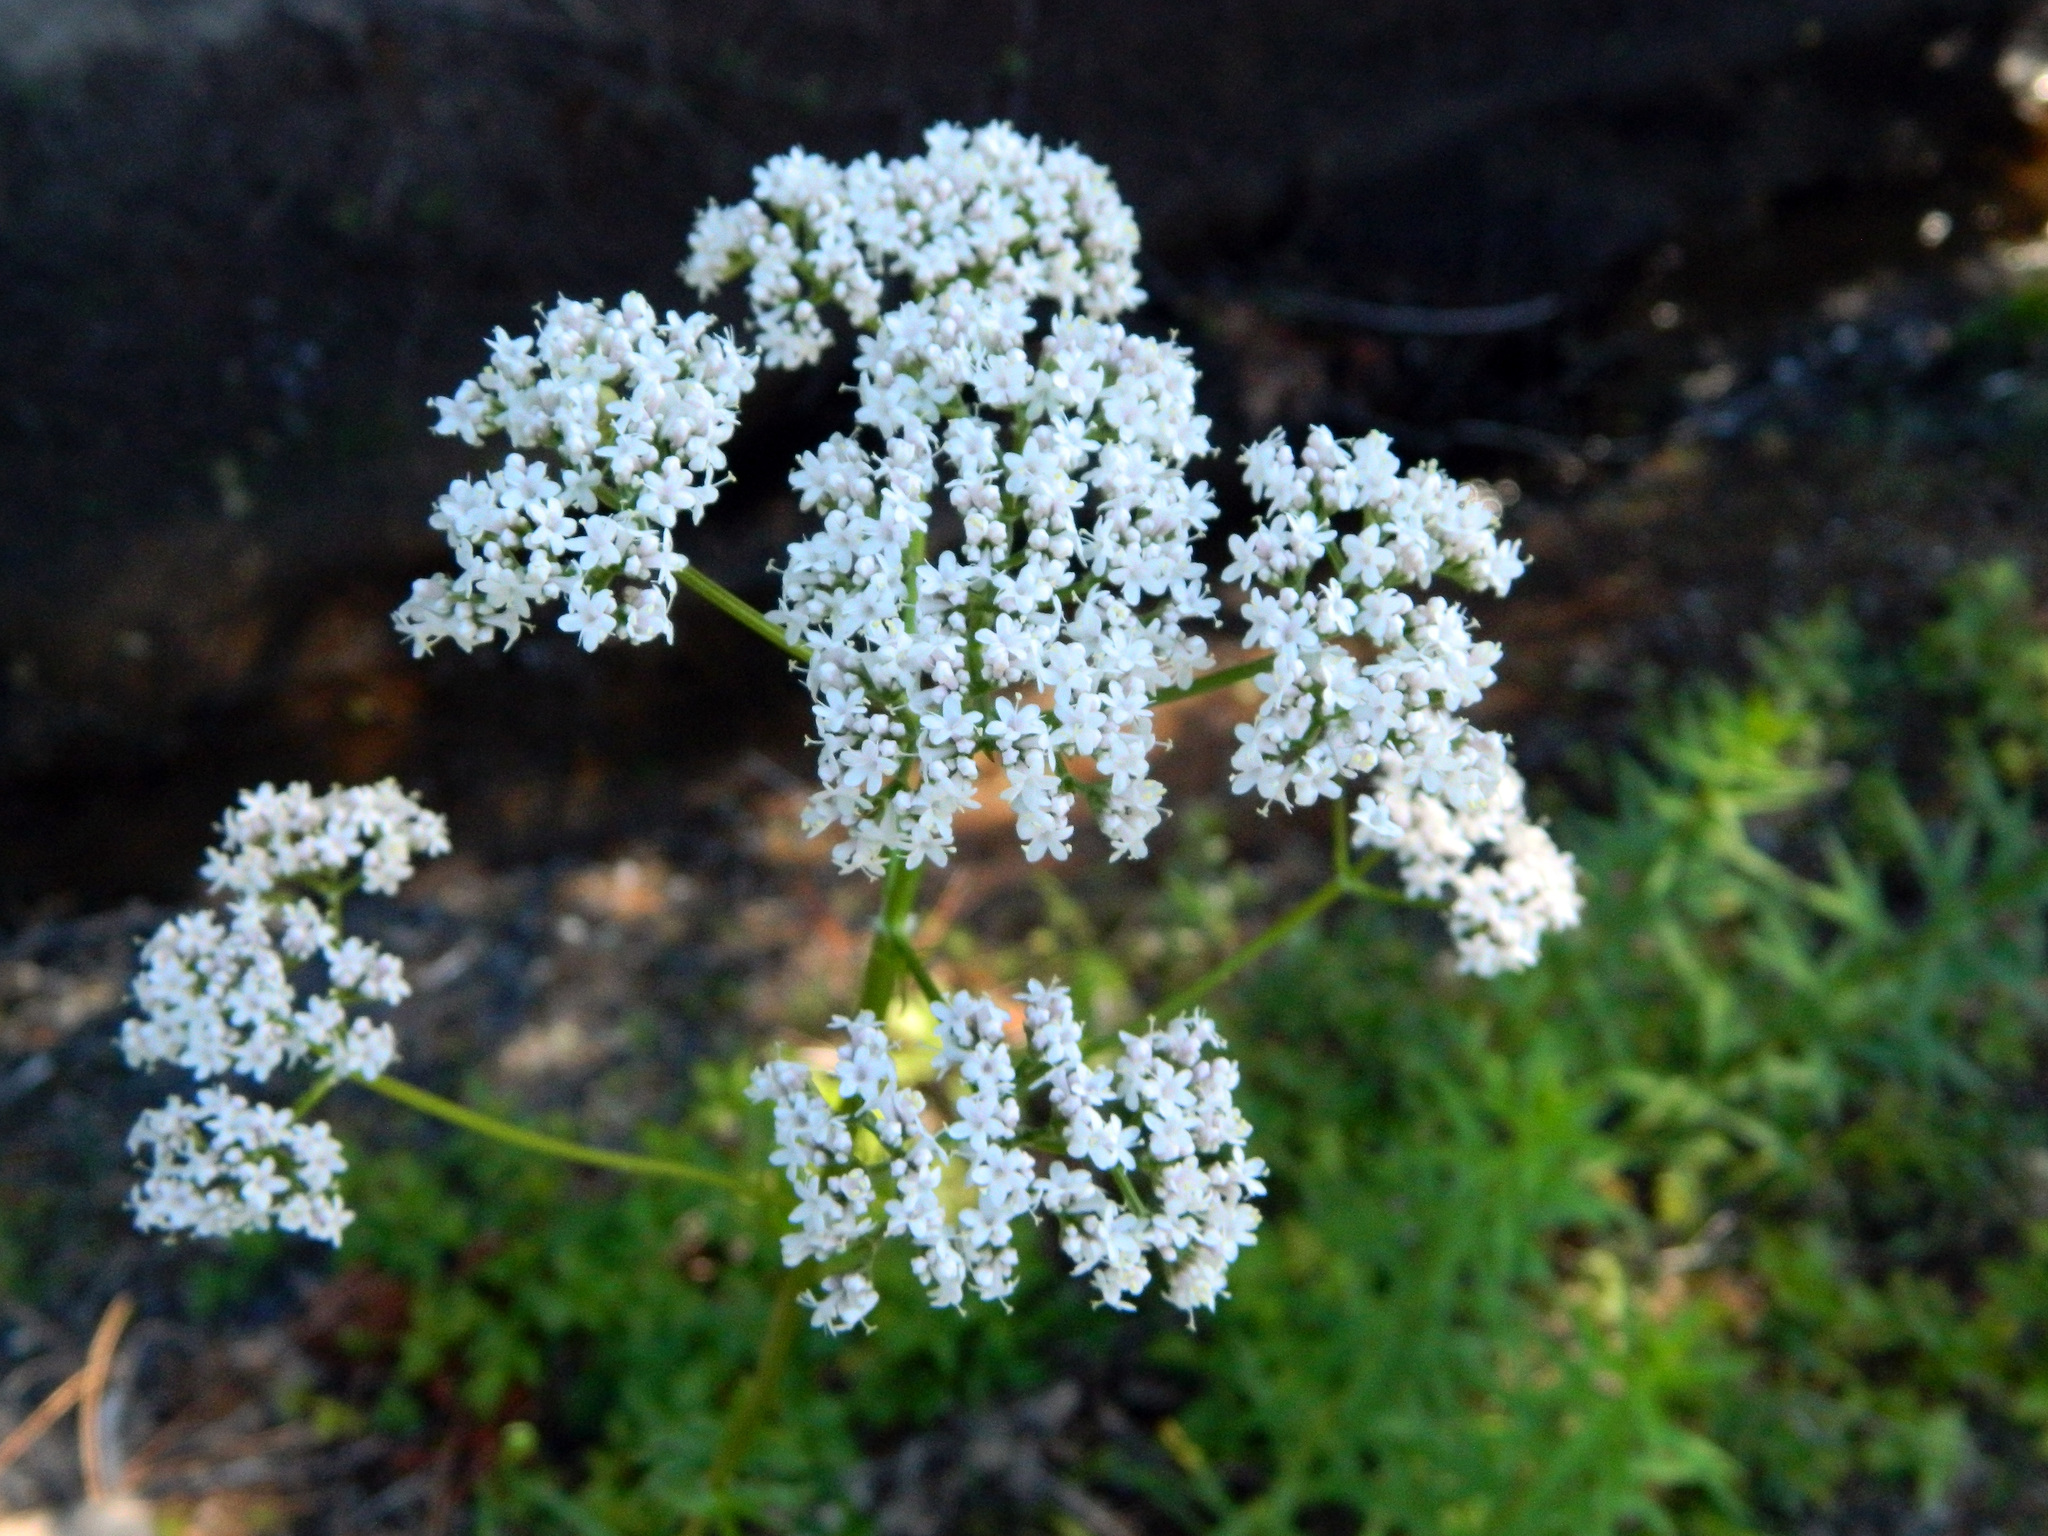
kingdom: Plantae
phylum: Tracheophyta
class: Magnoliopsida
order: Dipsacales
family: Caprifoliaceae
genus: Valeriana
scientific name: Valeriana officinalis
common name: Common valerian
